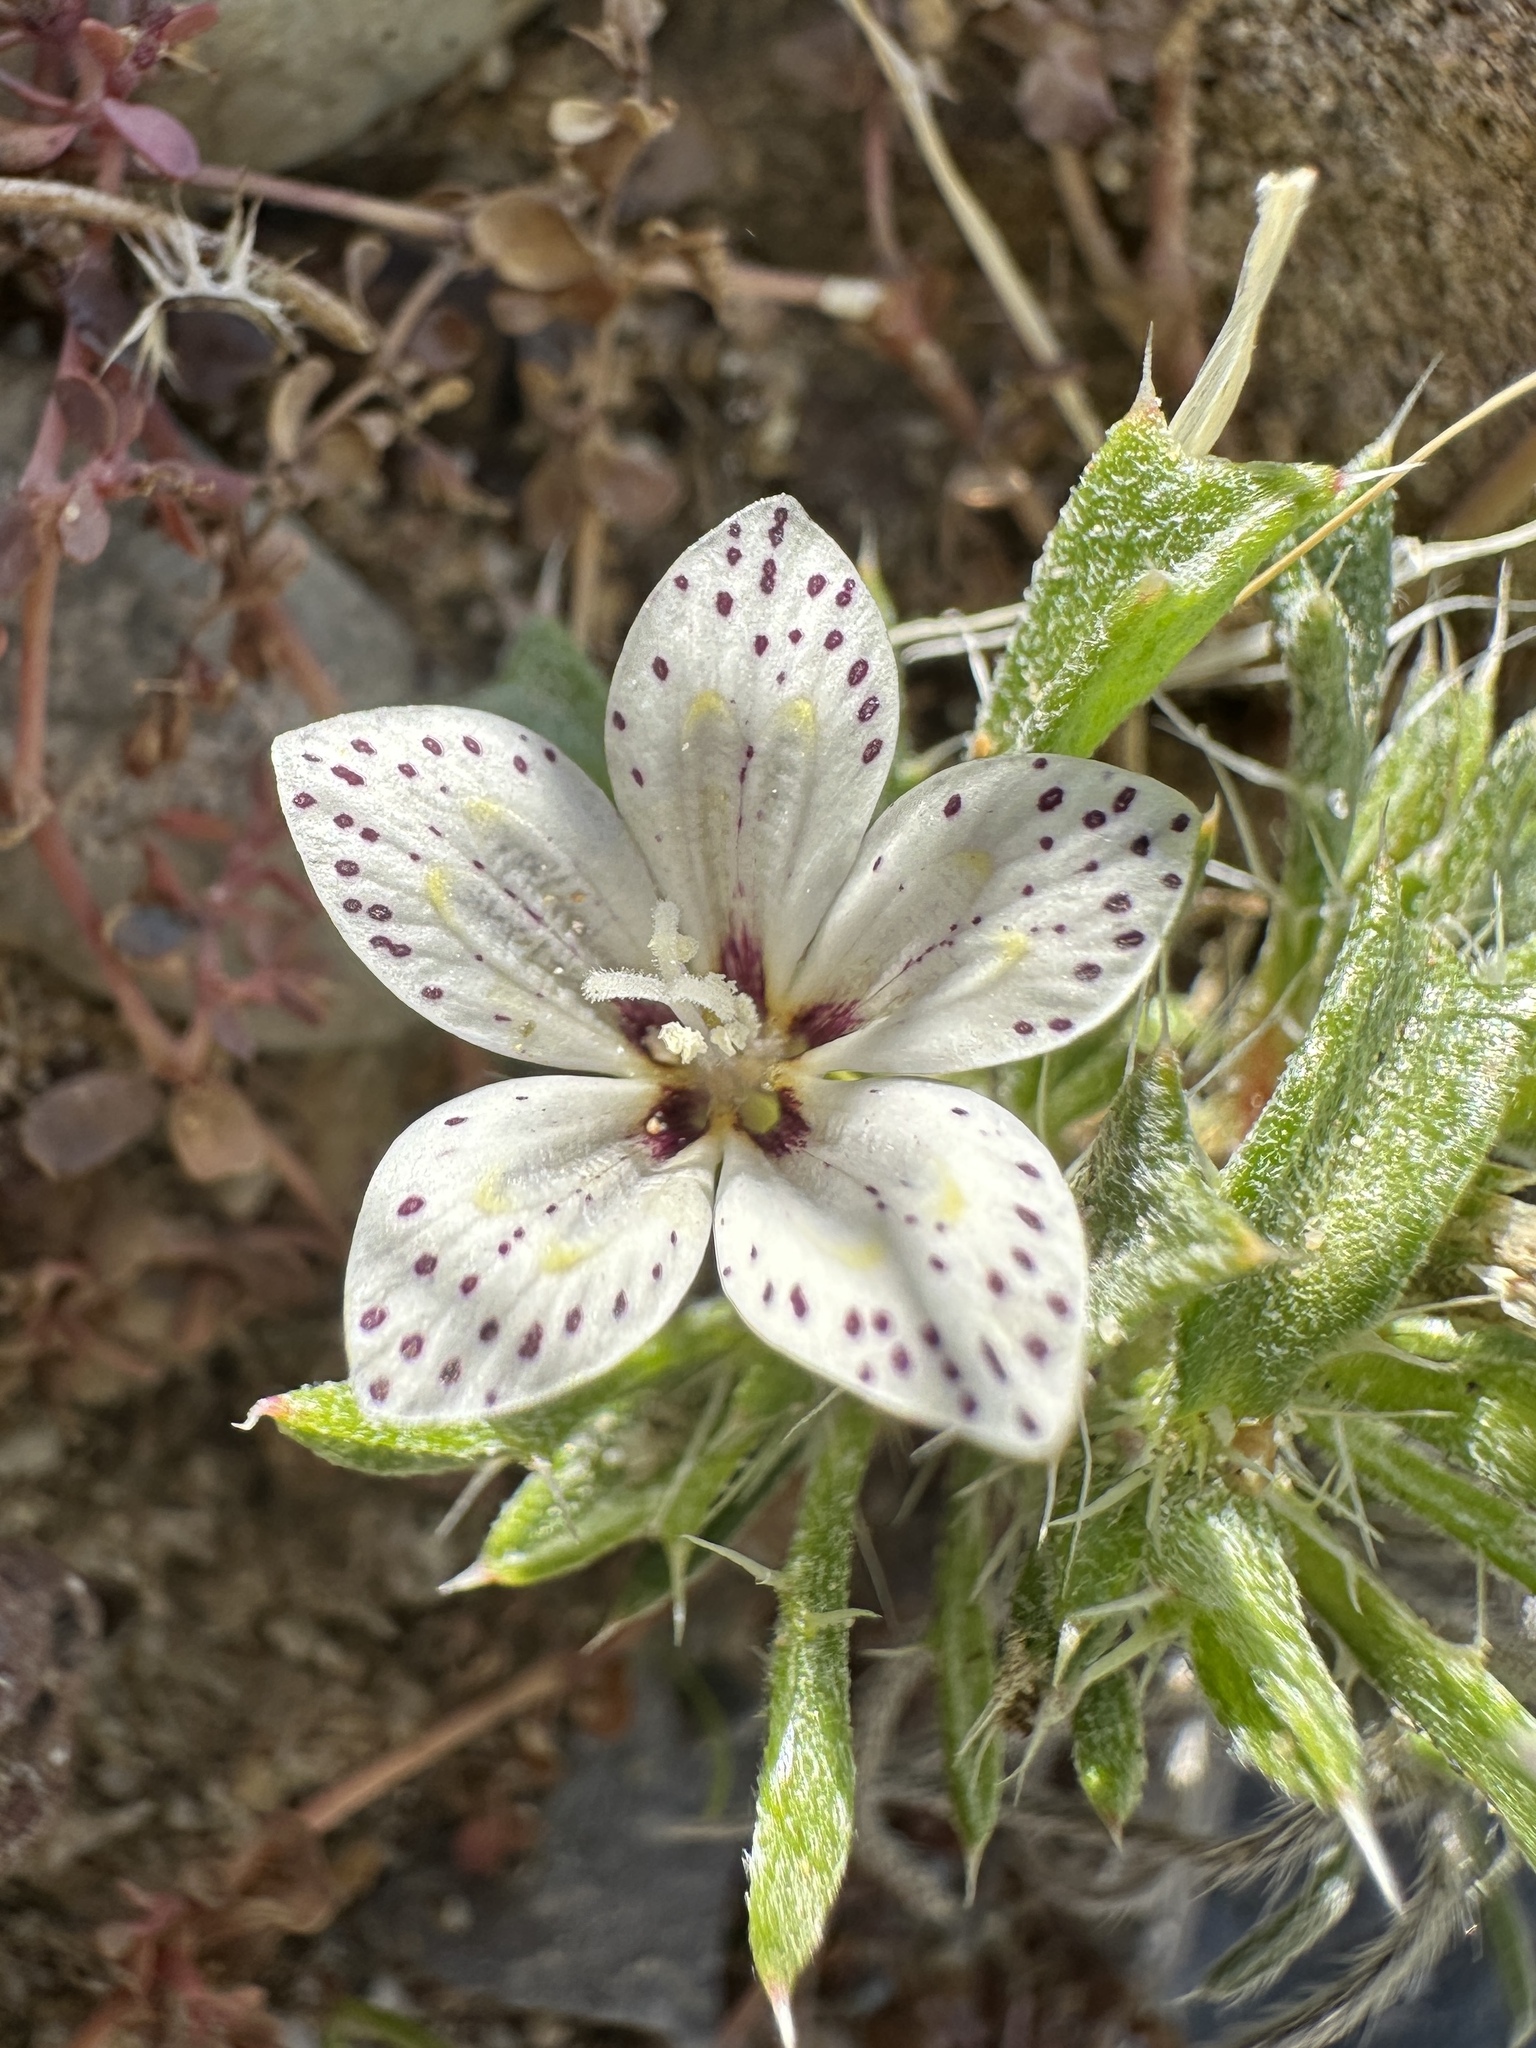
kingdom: Plantae
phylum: Tracheophyta
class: Magnoliopsida
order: Ericales
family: Polemoniaceae
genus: Langloisia
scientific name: Langloisia setosissima
